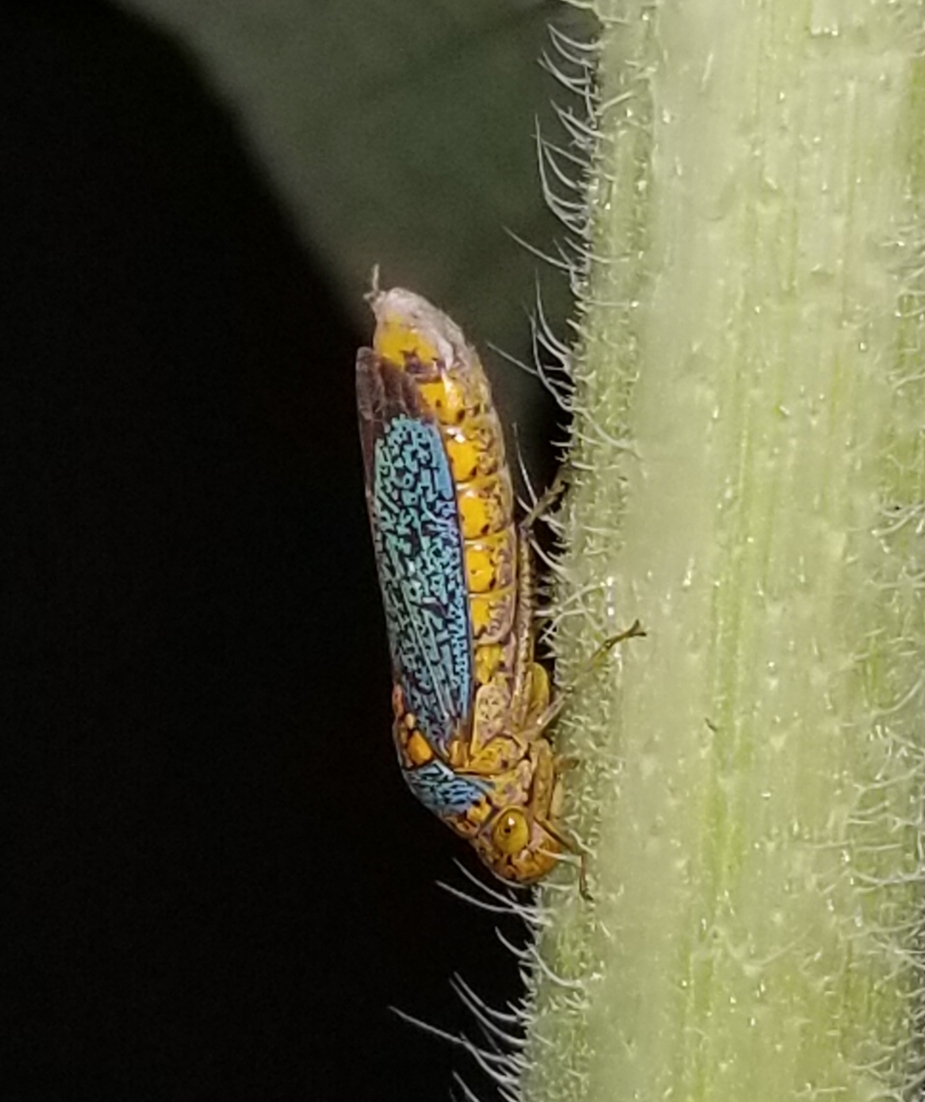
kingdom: Animalia
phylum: Arthropoda
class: Insecta
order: Hemiptera
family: Cicadellidae
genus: Oncometopia
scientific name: Oncometopia orbona
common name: Broad-headed sharpshooter
